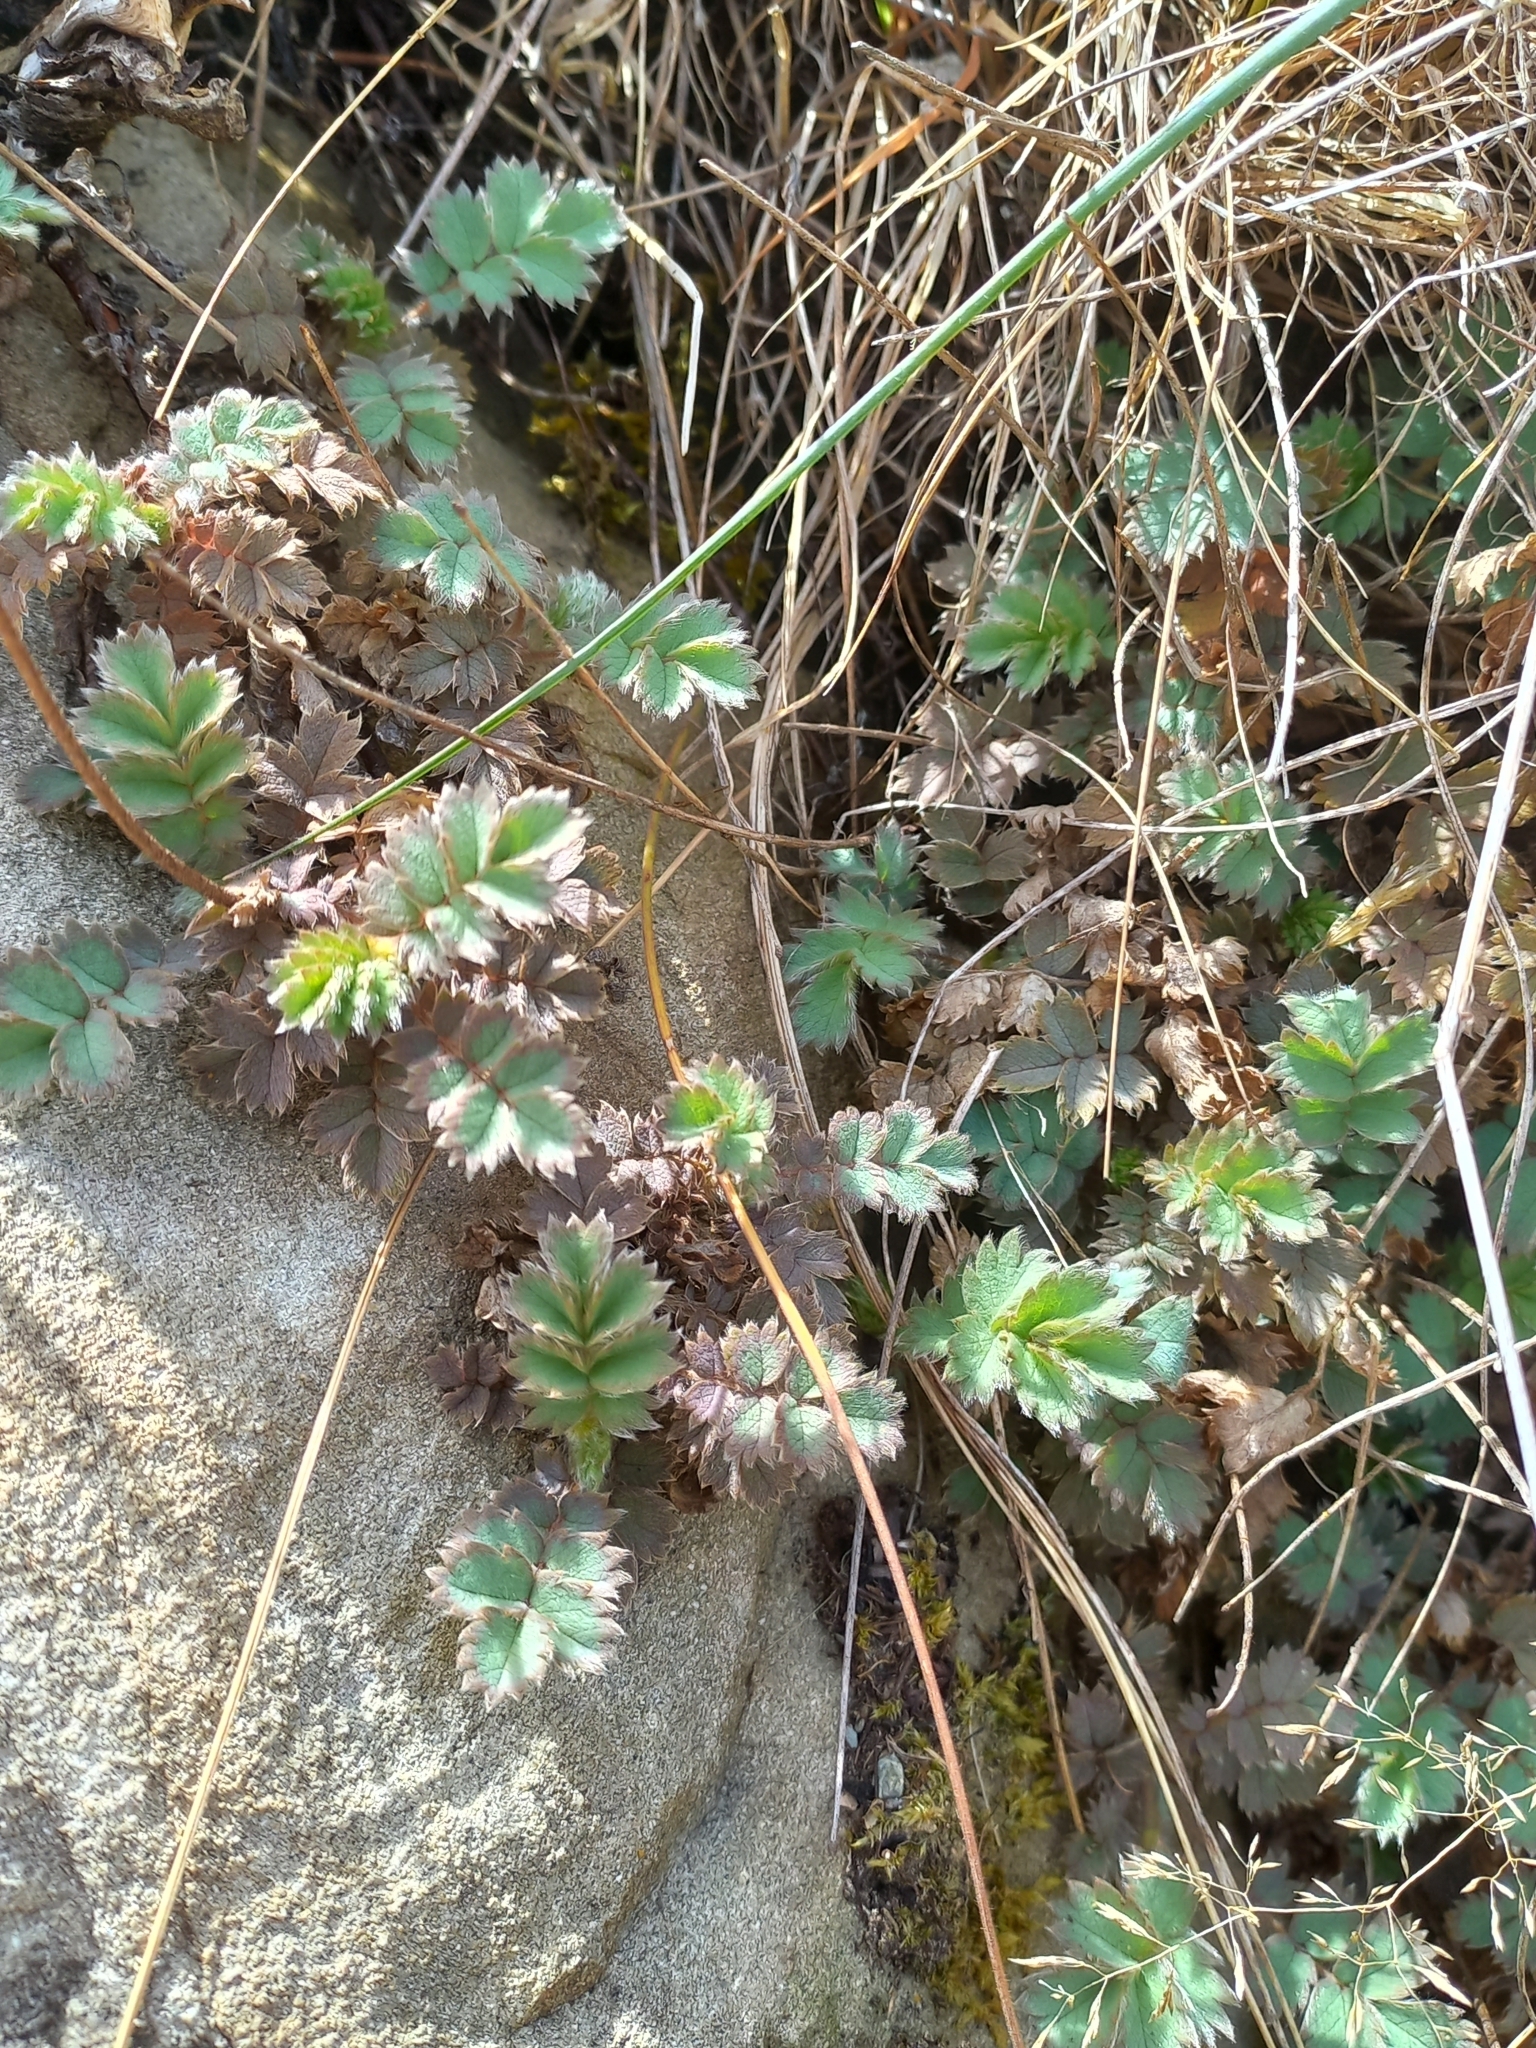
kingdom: Plantae
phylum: Tracheophyta
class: Magnoliopsida
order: Rosales
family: Rosaceae
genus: Acaena
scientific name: Acaena caesiiglauca
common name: Glaucous pirri-pirri-bur
